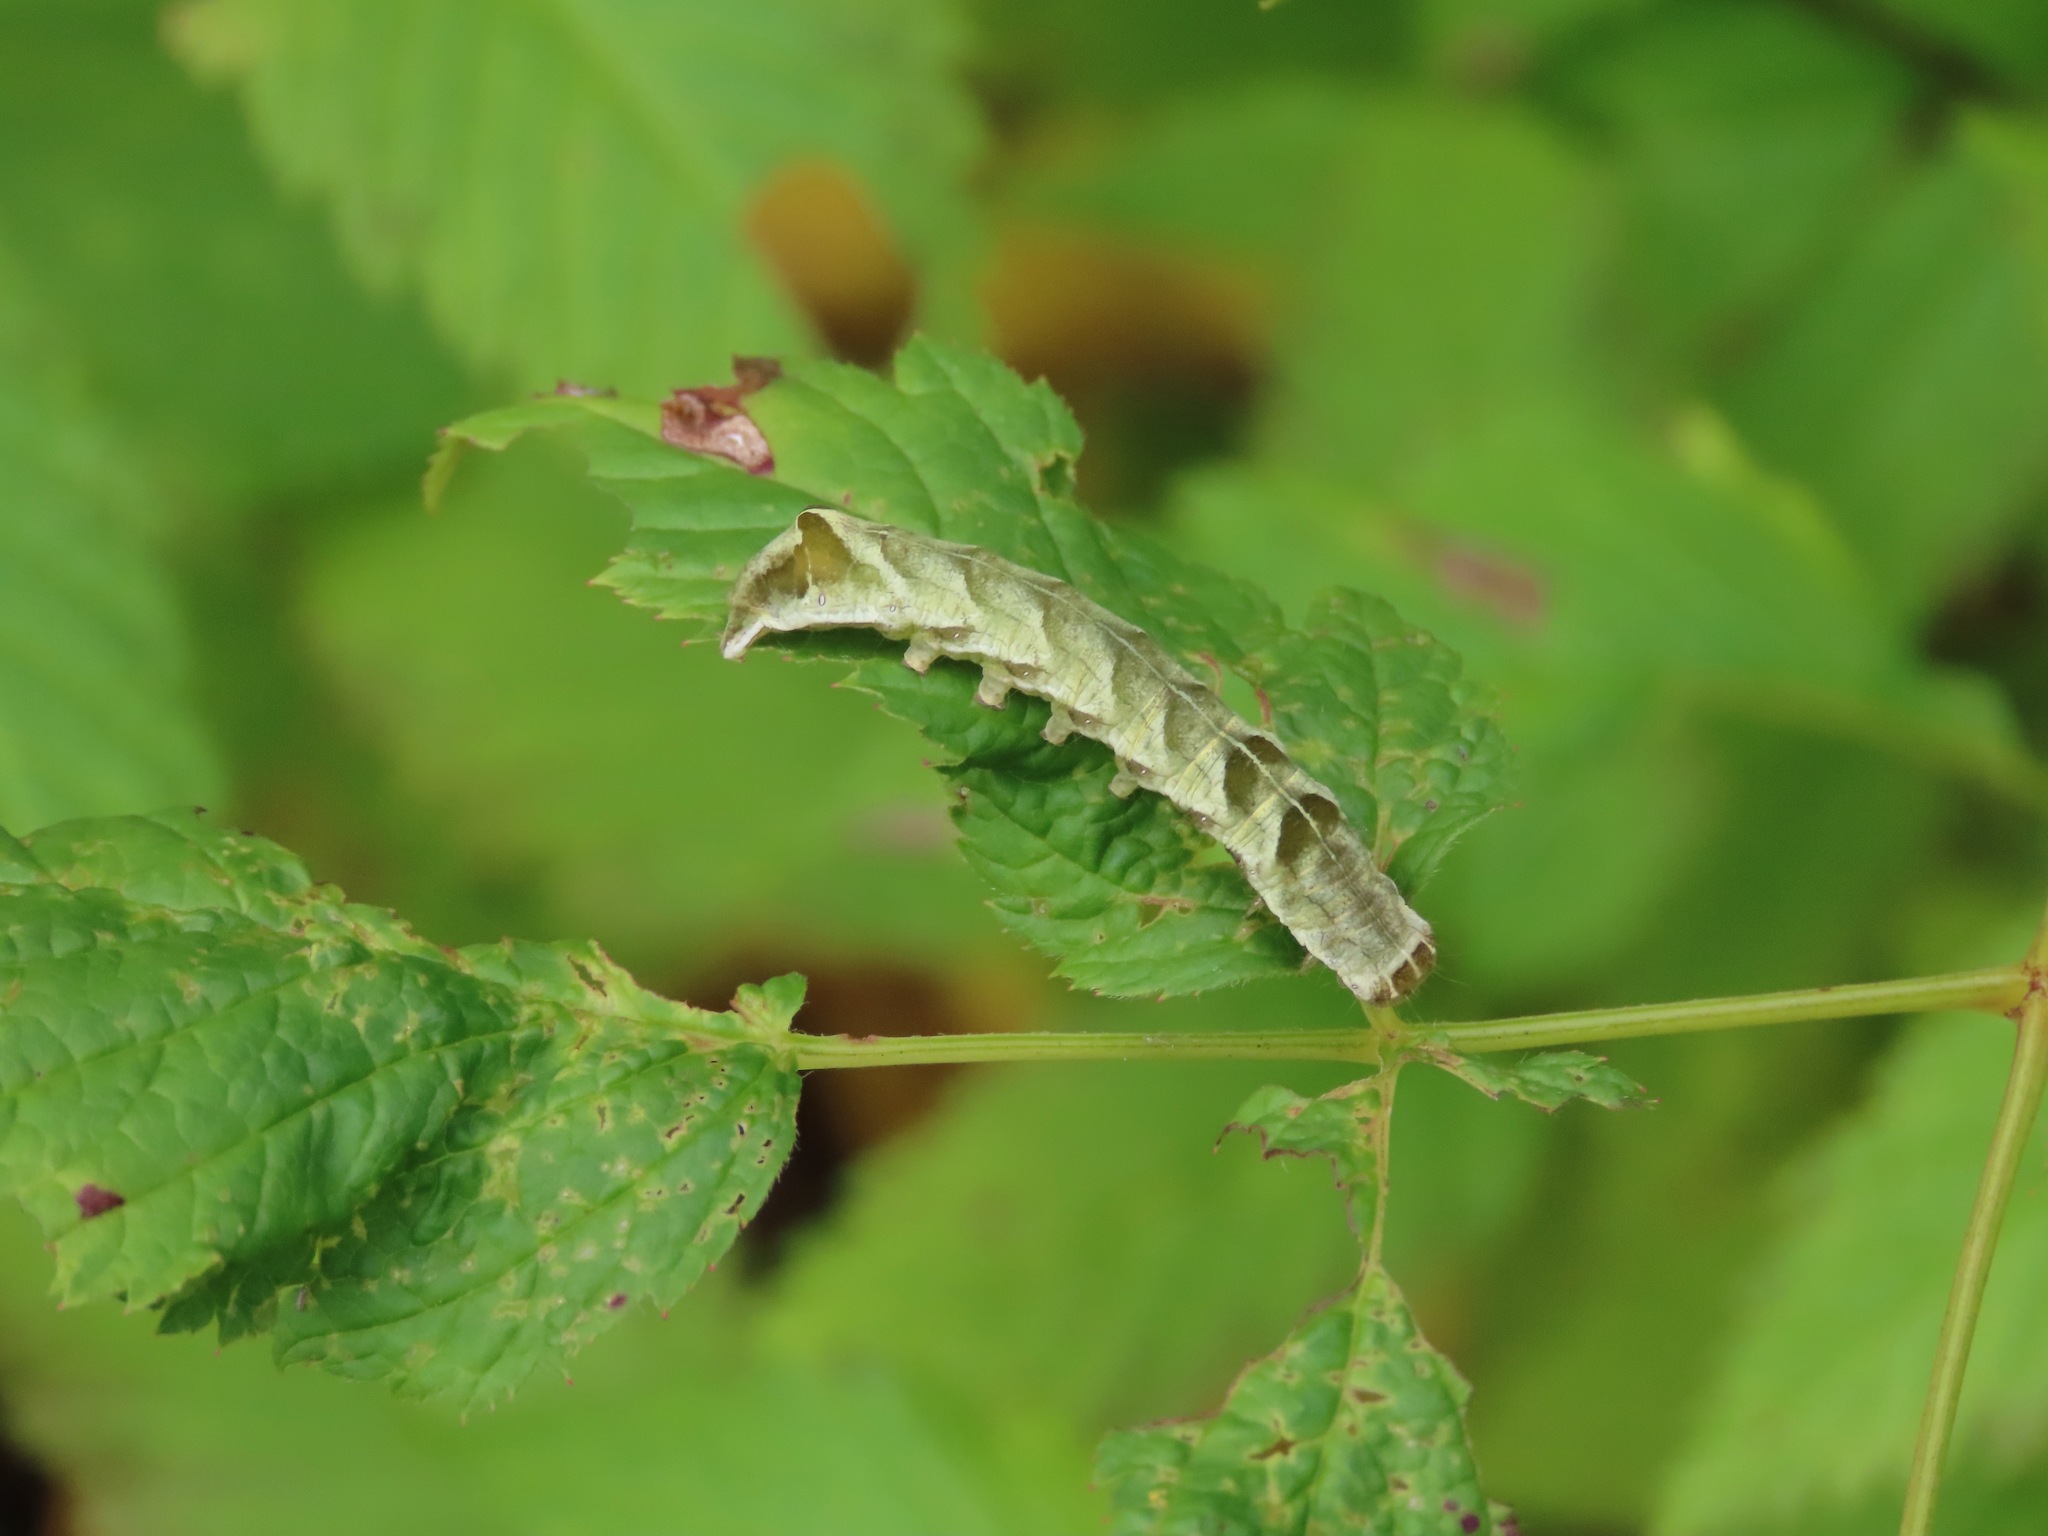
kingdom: Animalia
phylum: Arthropoda
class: Insecta
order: Lepidoptera
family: Noctuidae
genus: Melanchra
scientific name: Melanchra adjuncta
